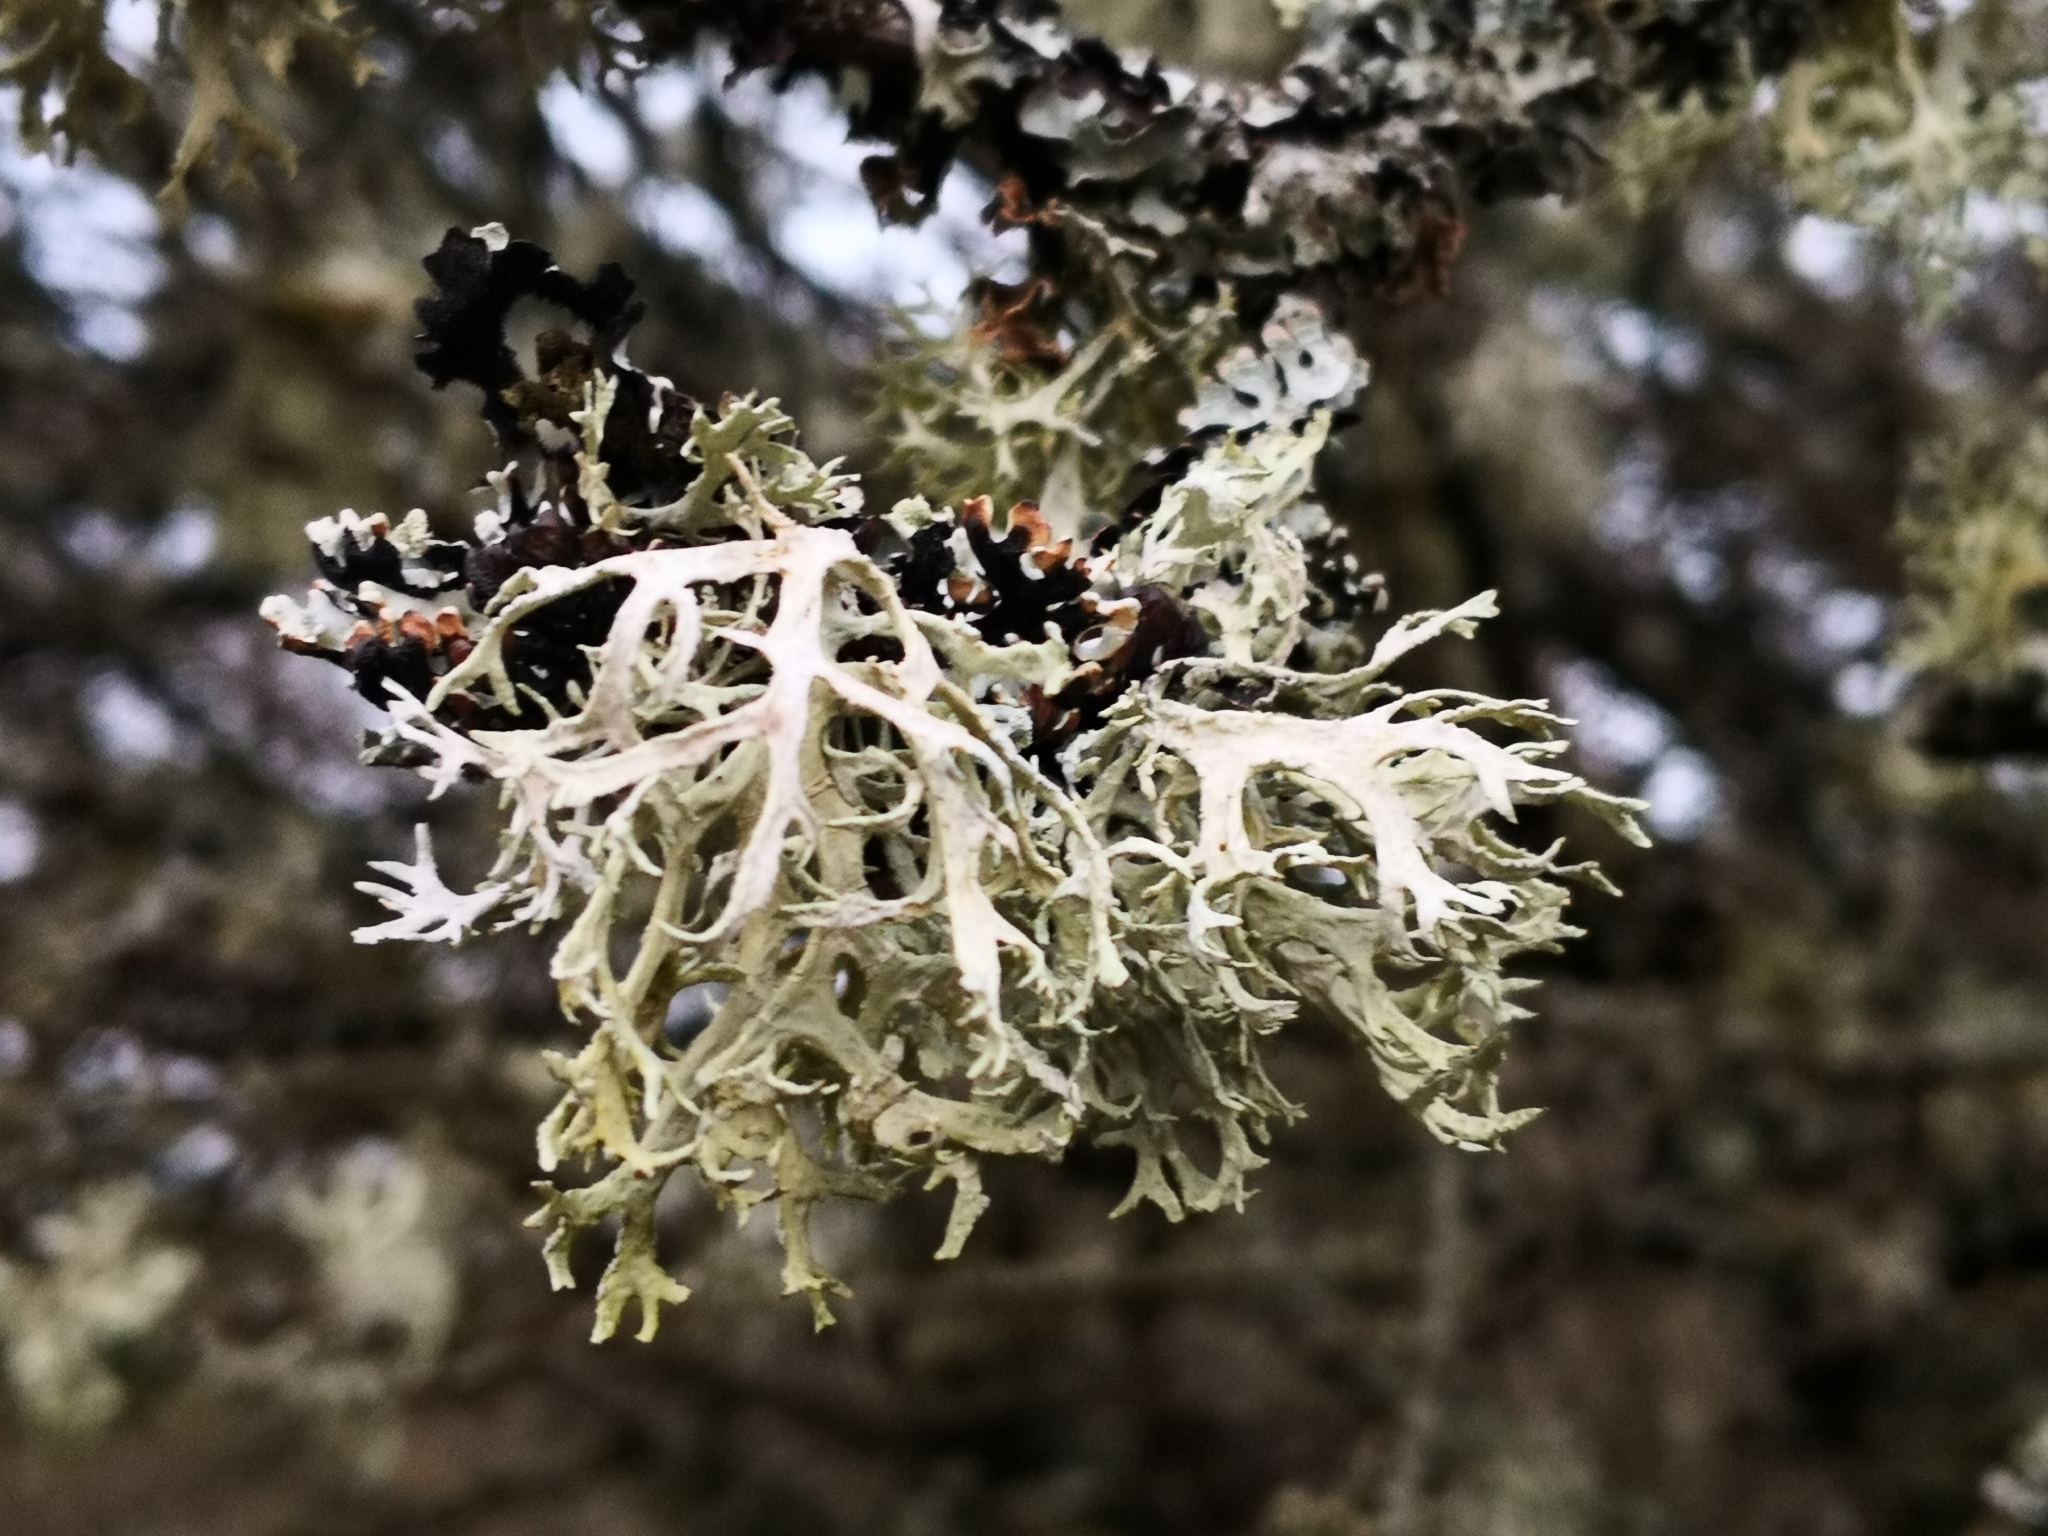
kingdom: Fungi
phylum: Ascomycota
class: Lecanoromycetes
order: Lecanorales
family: Parmeliaceae
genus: Evernia
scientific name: Evernia prunastri
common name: Oak moss
